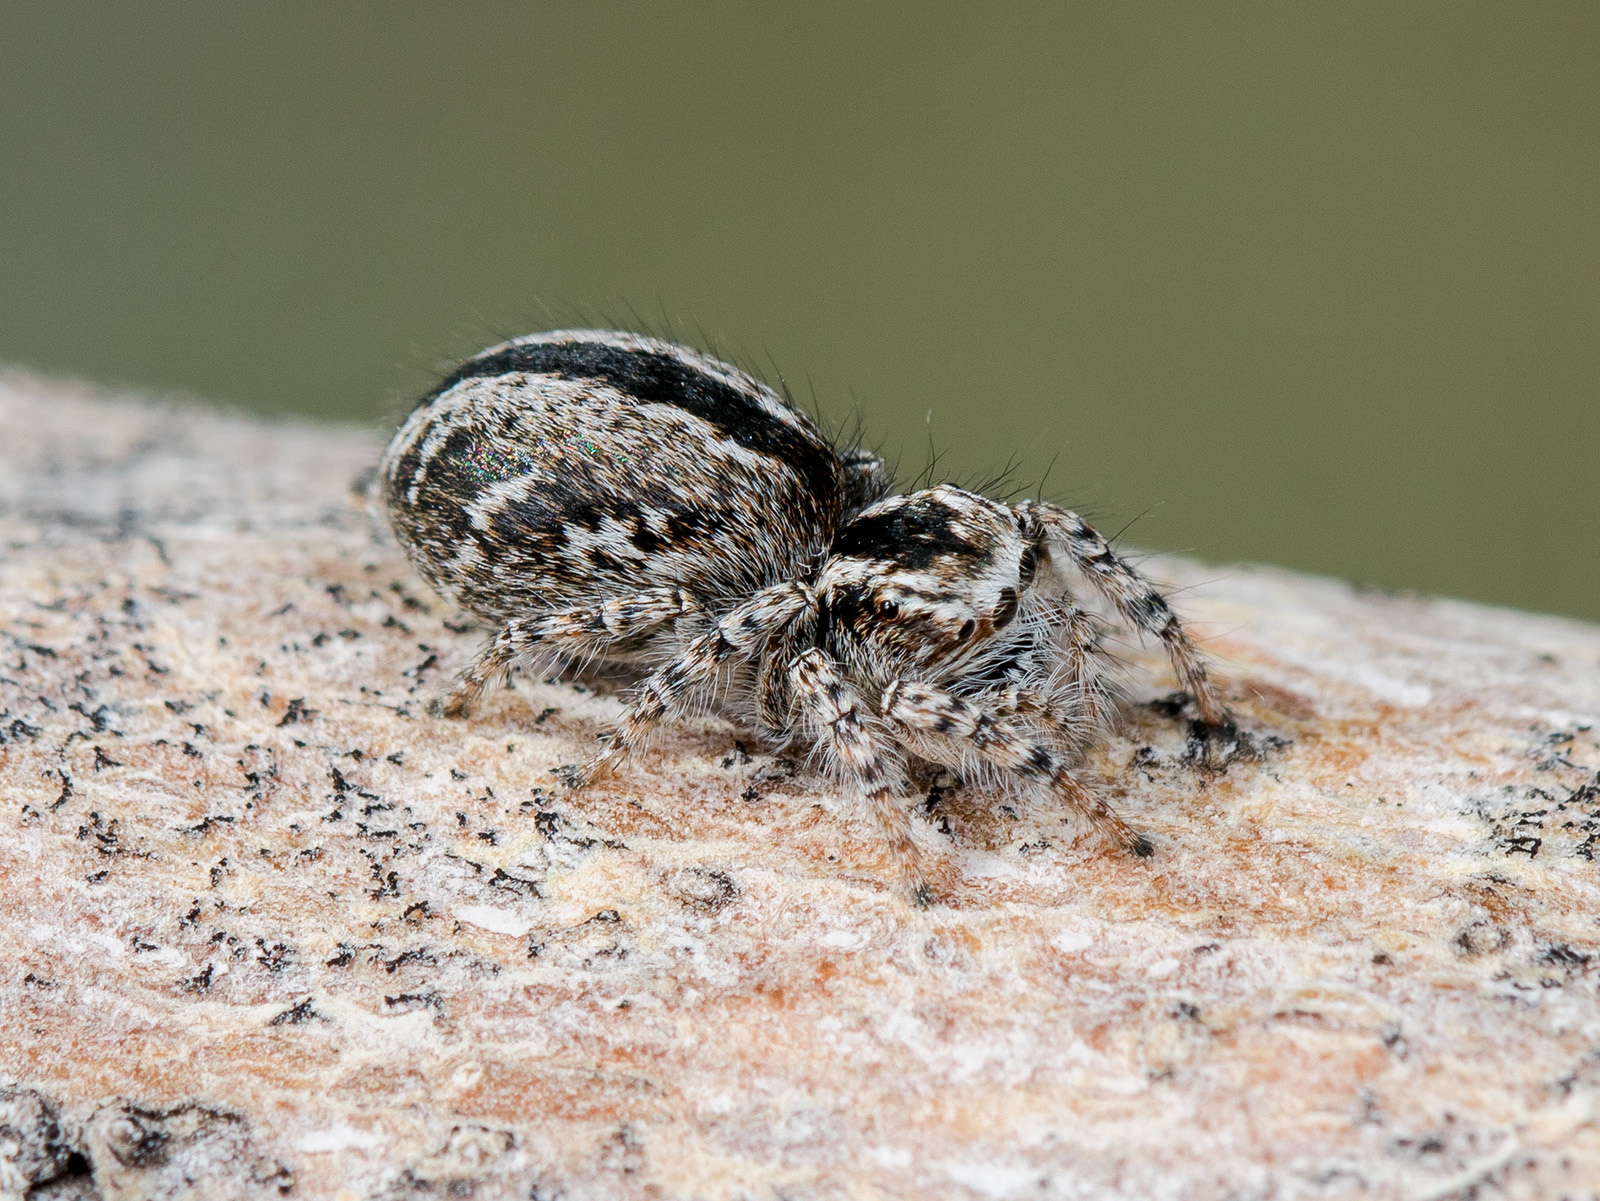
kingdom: Animalia
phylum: Arthropoda
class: Arachnida
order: Araneae
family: Salticidae
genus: Mogrus
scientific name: Mogrus antoninus
